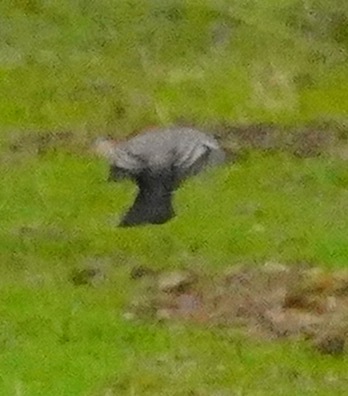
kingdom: Animalia
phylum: Chordata
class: Aves
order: Passeriformes
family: Tyrannidae
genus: Sayornis
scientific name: Sayornis saya
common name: Say's phoebe
